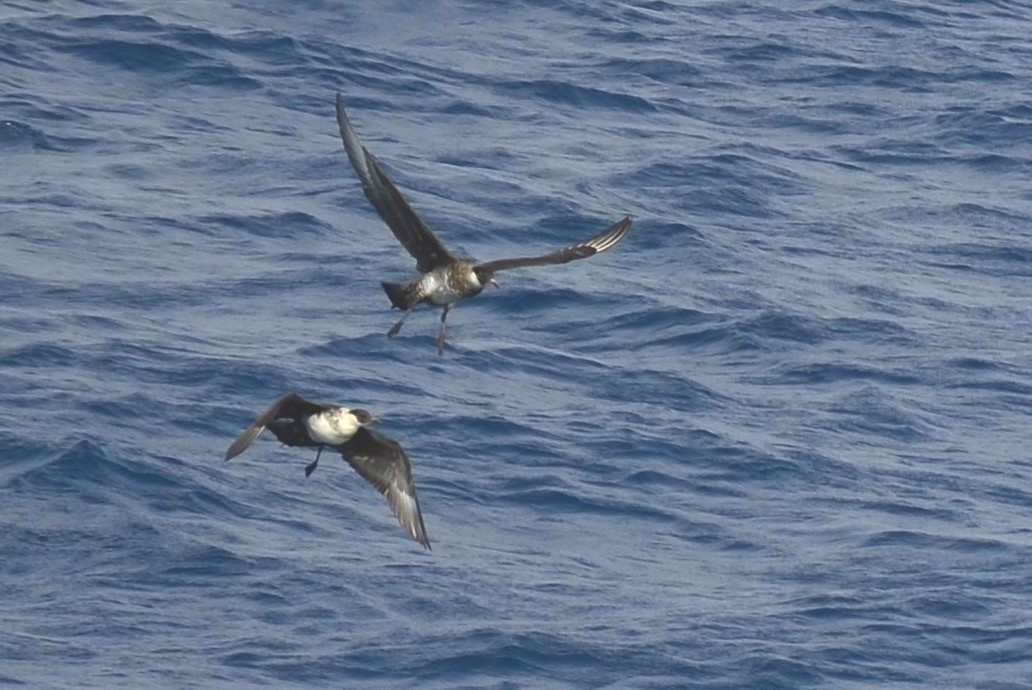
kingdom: Animalia
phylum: Chordata
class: Aves
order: Charadriiformes
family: Stercorariidae
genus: Stercorarius
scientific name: Stercorarius pomarinus
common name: Pomarine jaeger
